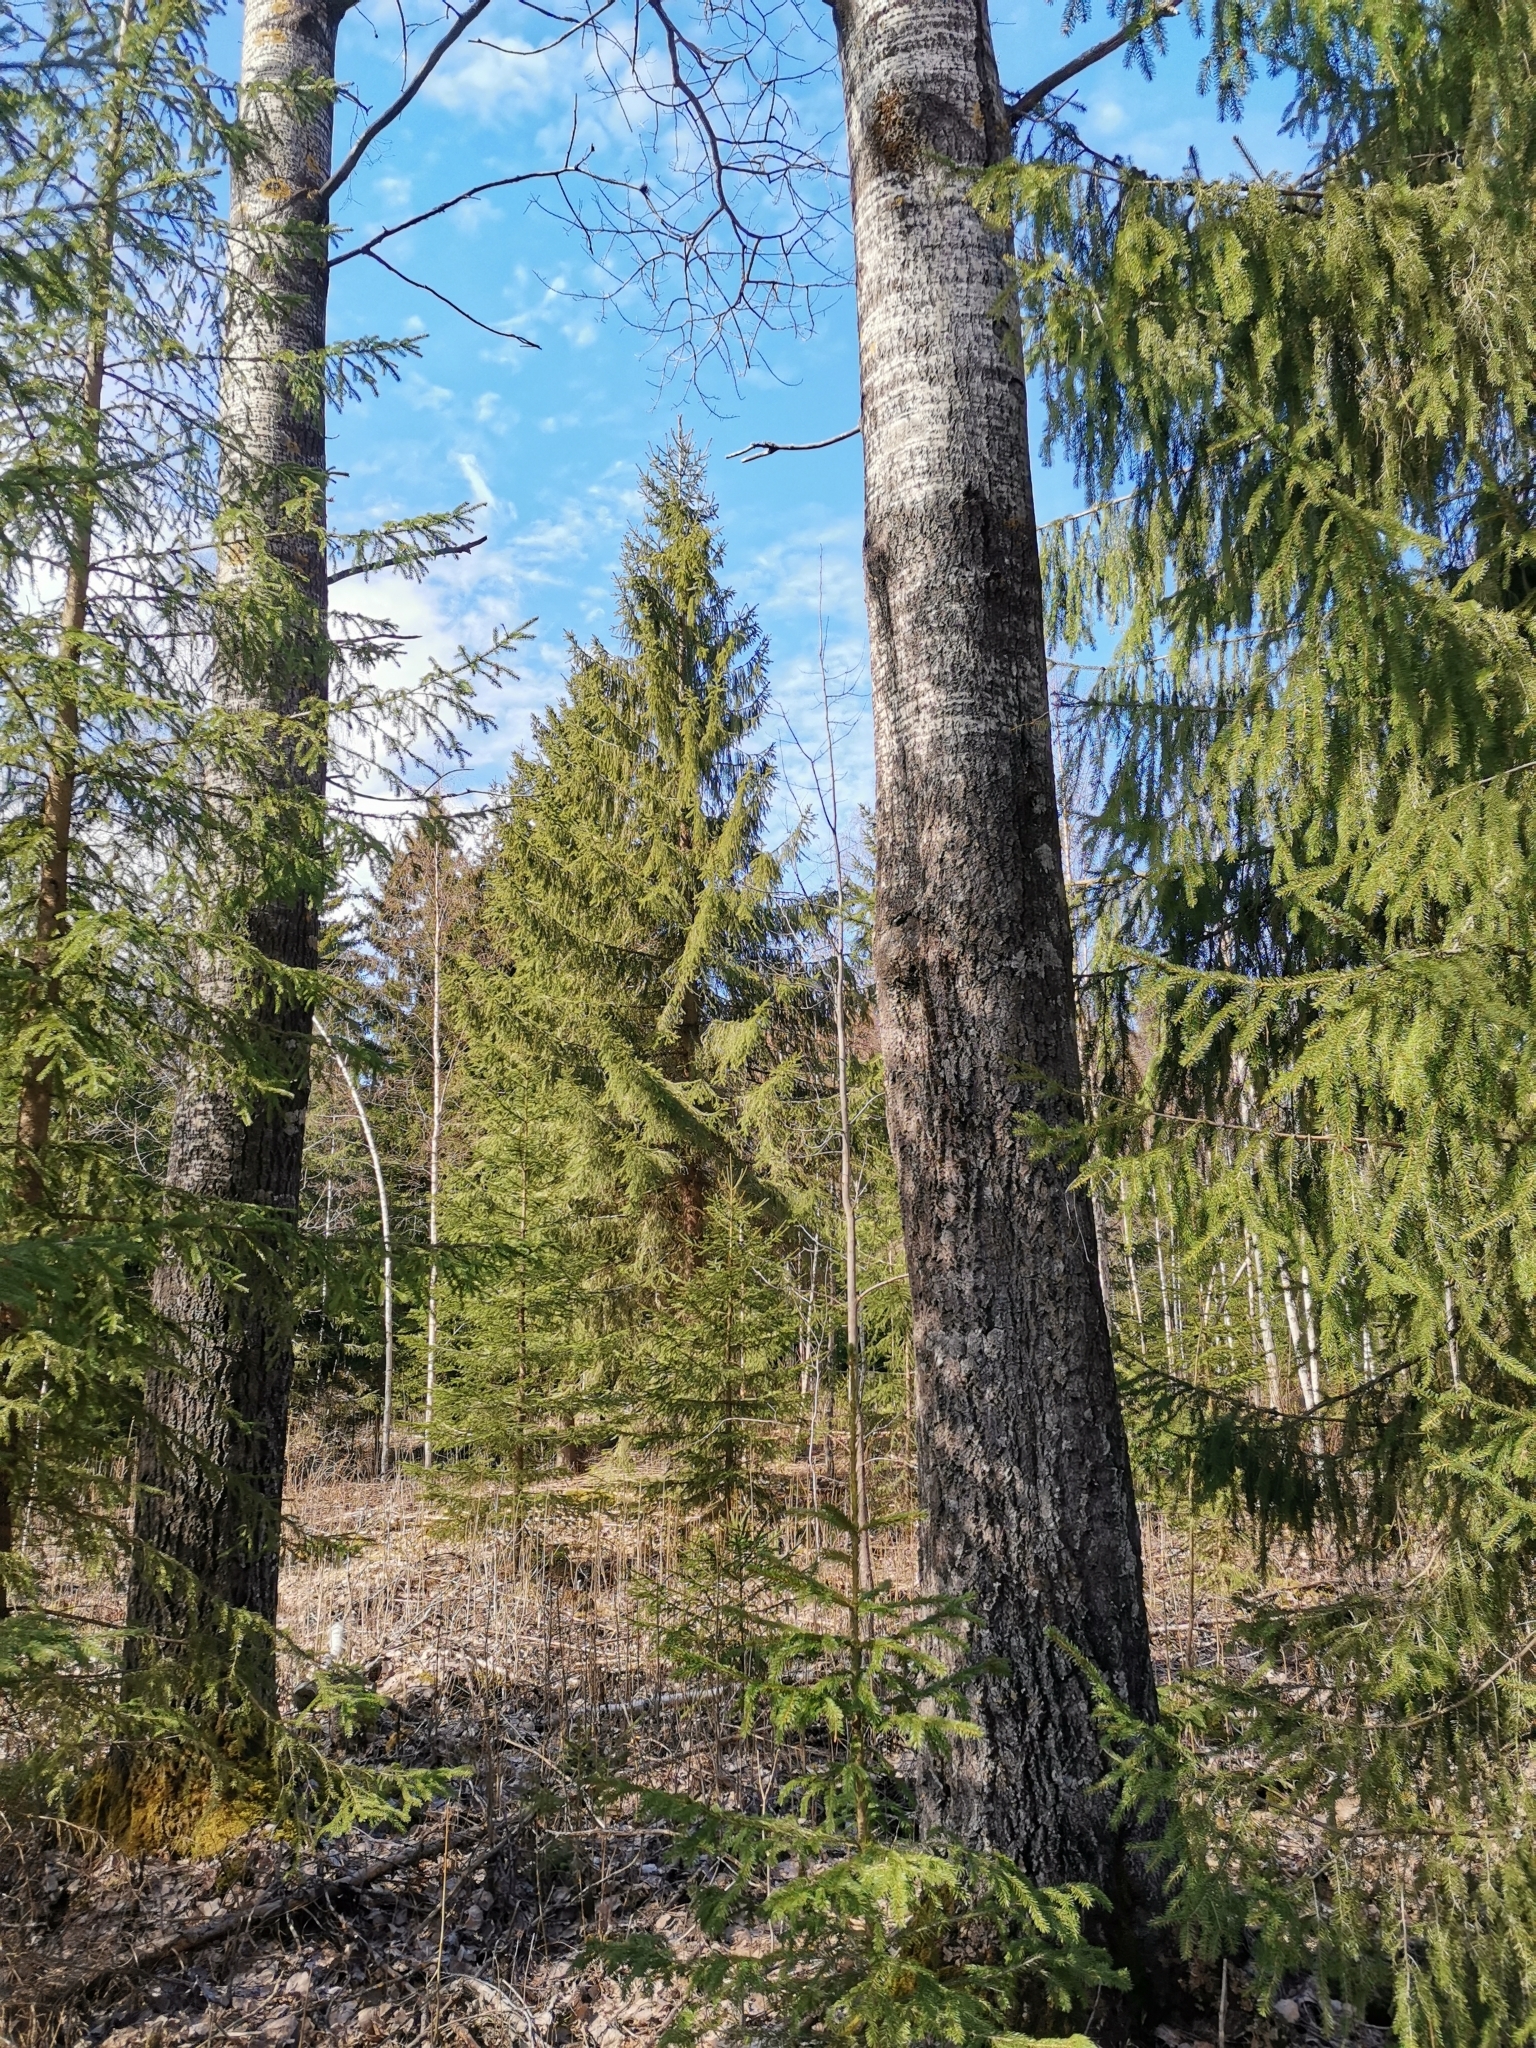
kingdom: Animalia
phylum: Chordata
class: Mammalia
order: Rodentia
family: Sciuridae
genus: Pteromys
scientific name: Pteromys volans
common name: Siberian flying squirrel
